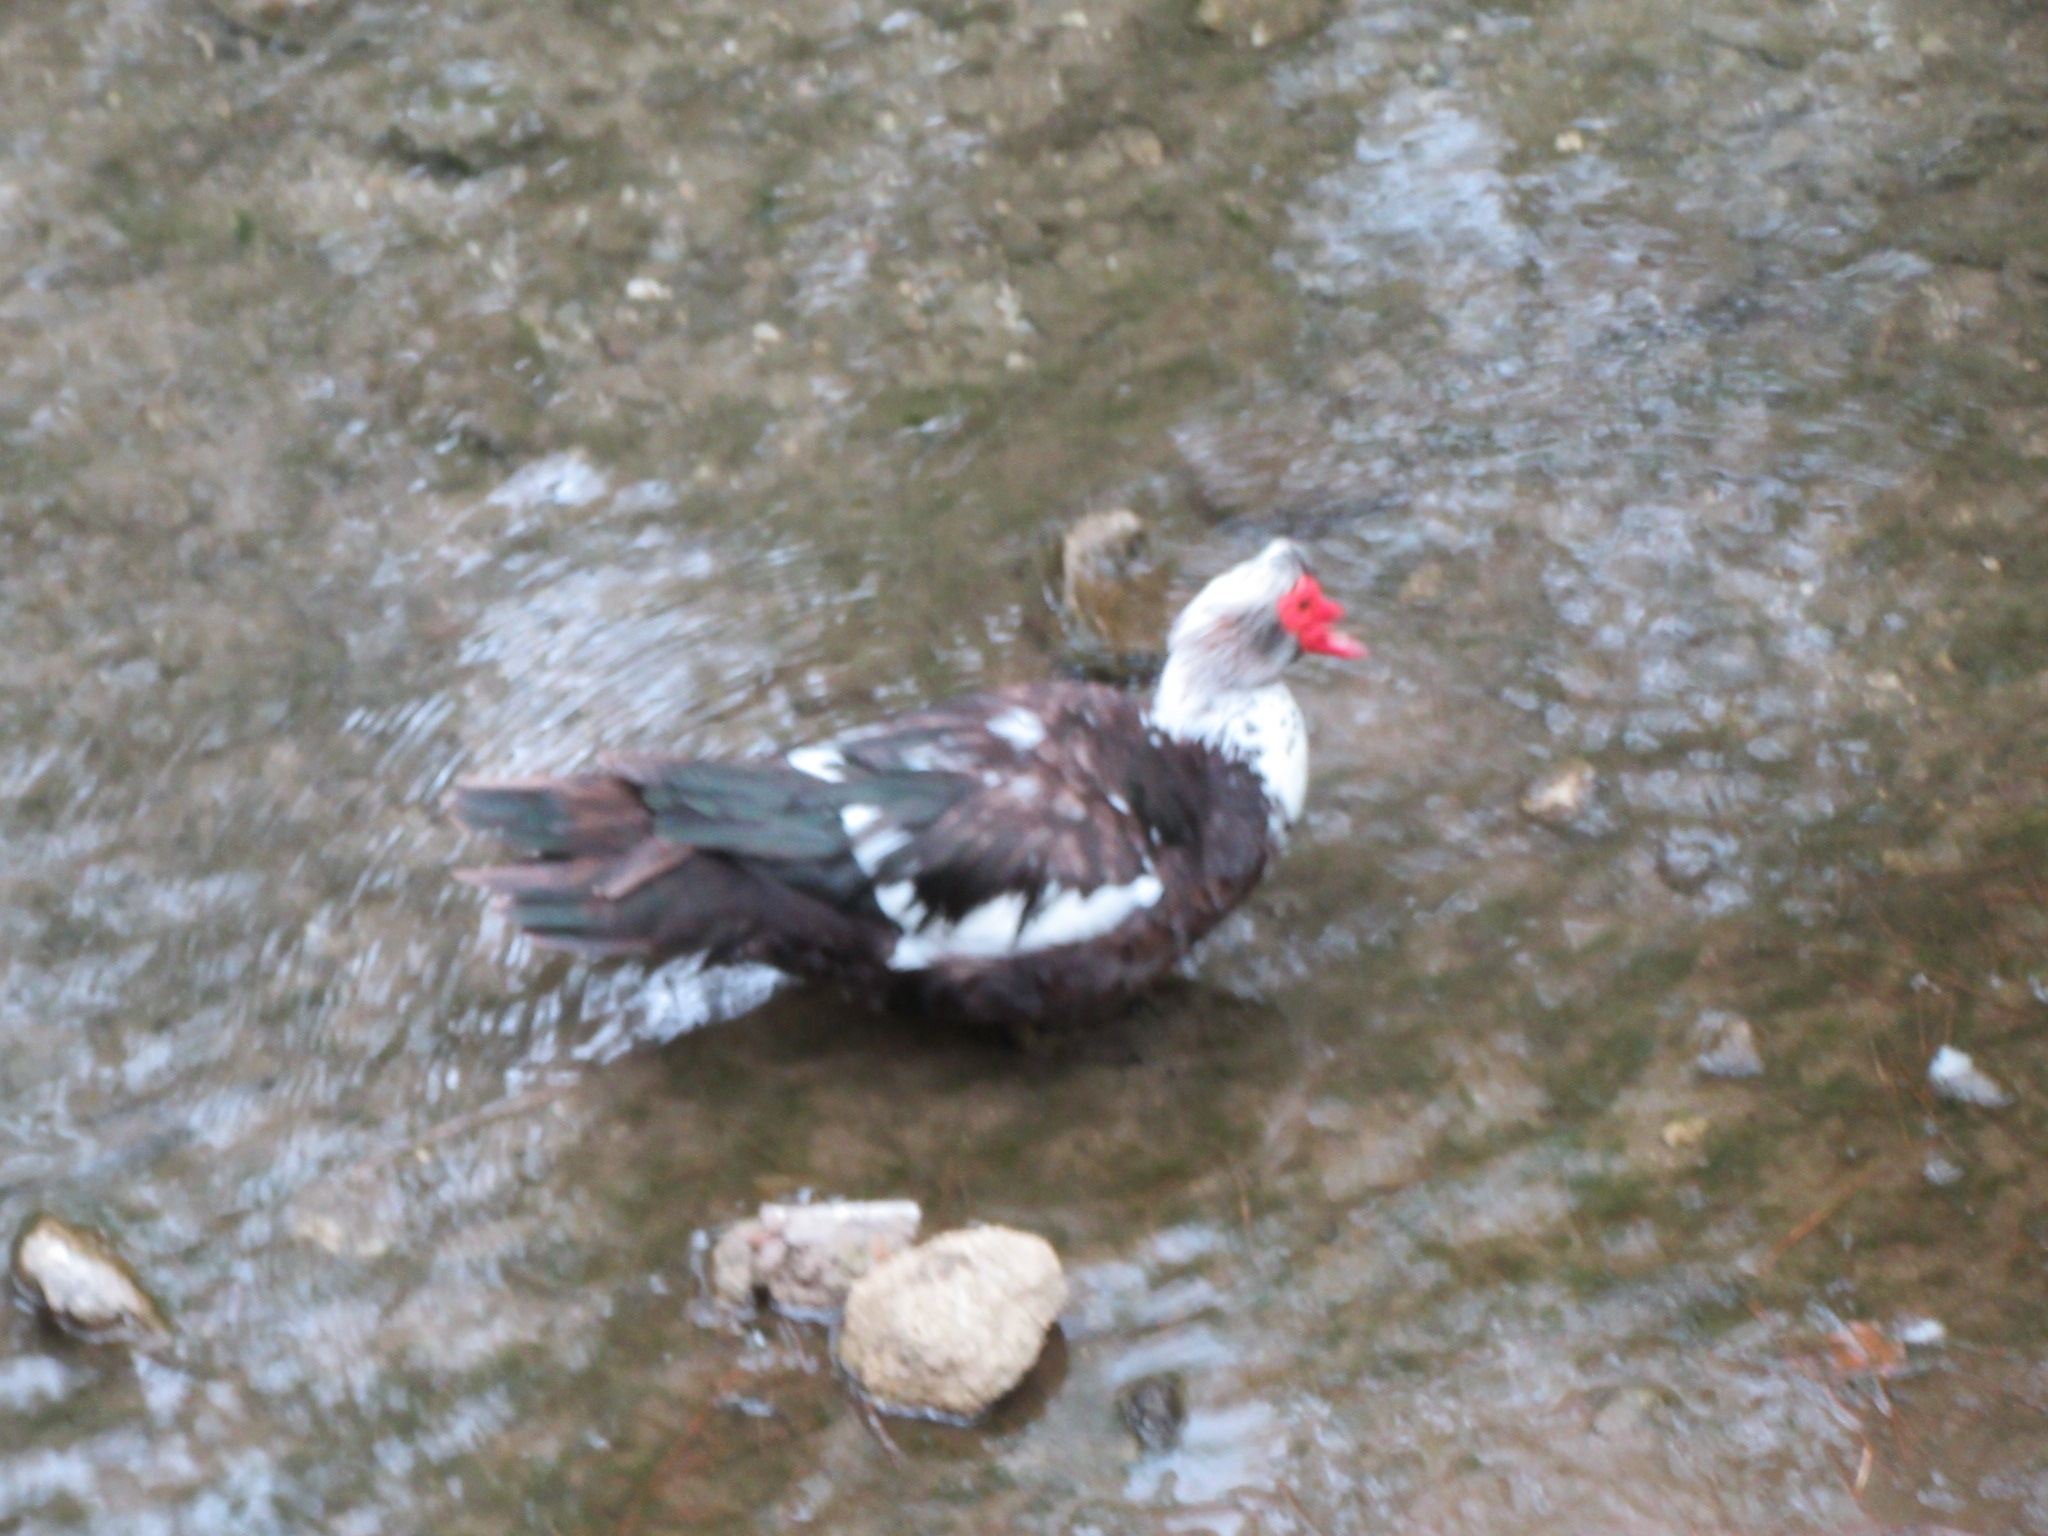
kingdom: Animalia
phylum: Chordata
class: Aves
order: Anseriformes
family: Anatidae
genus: Cairina
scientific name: Cairina moschata
